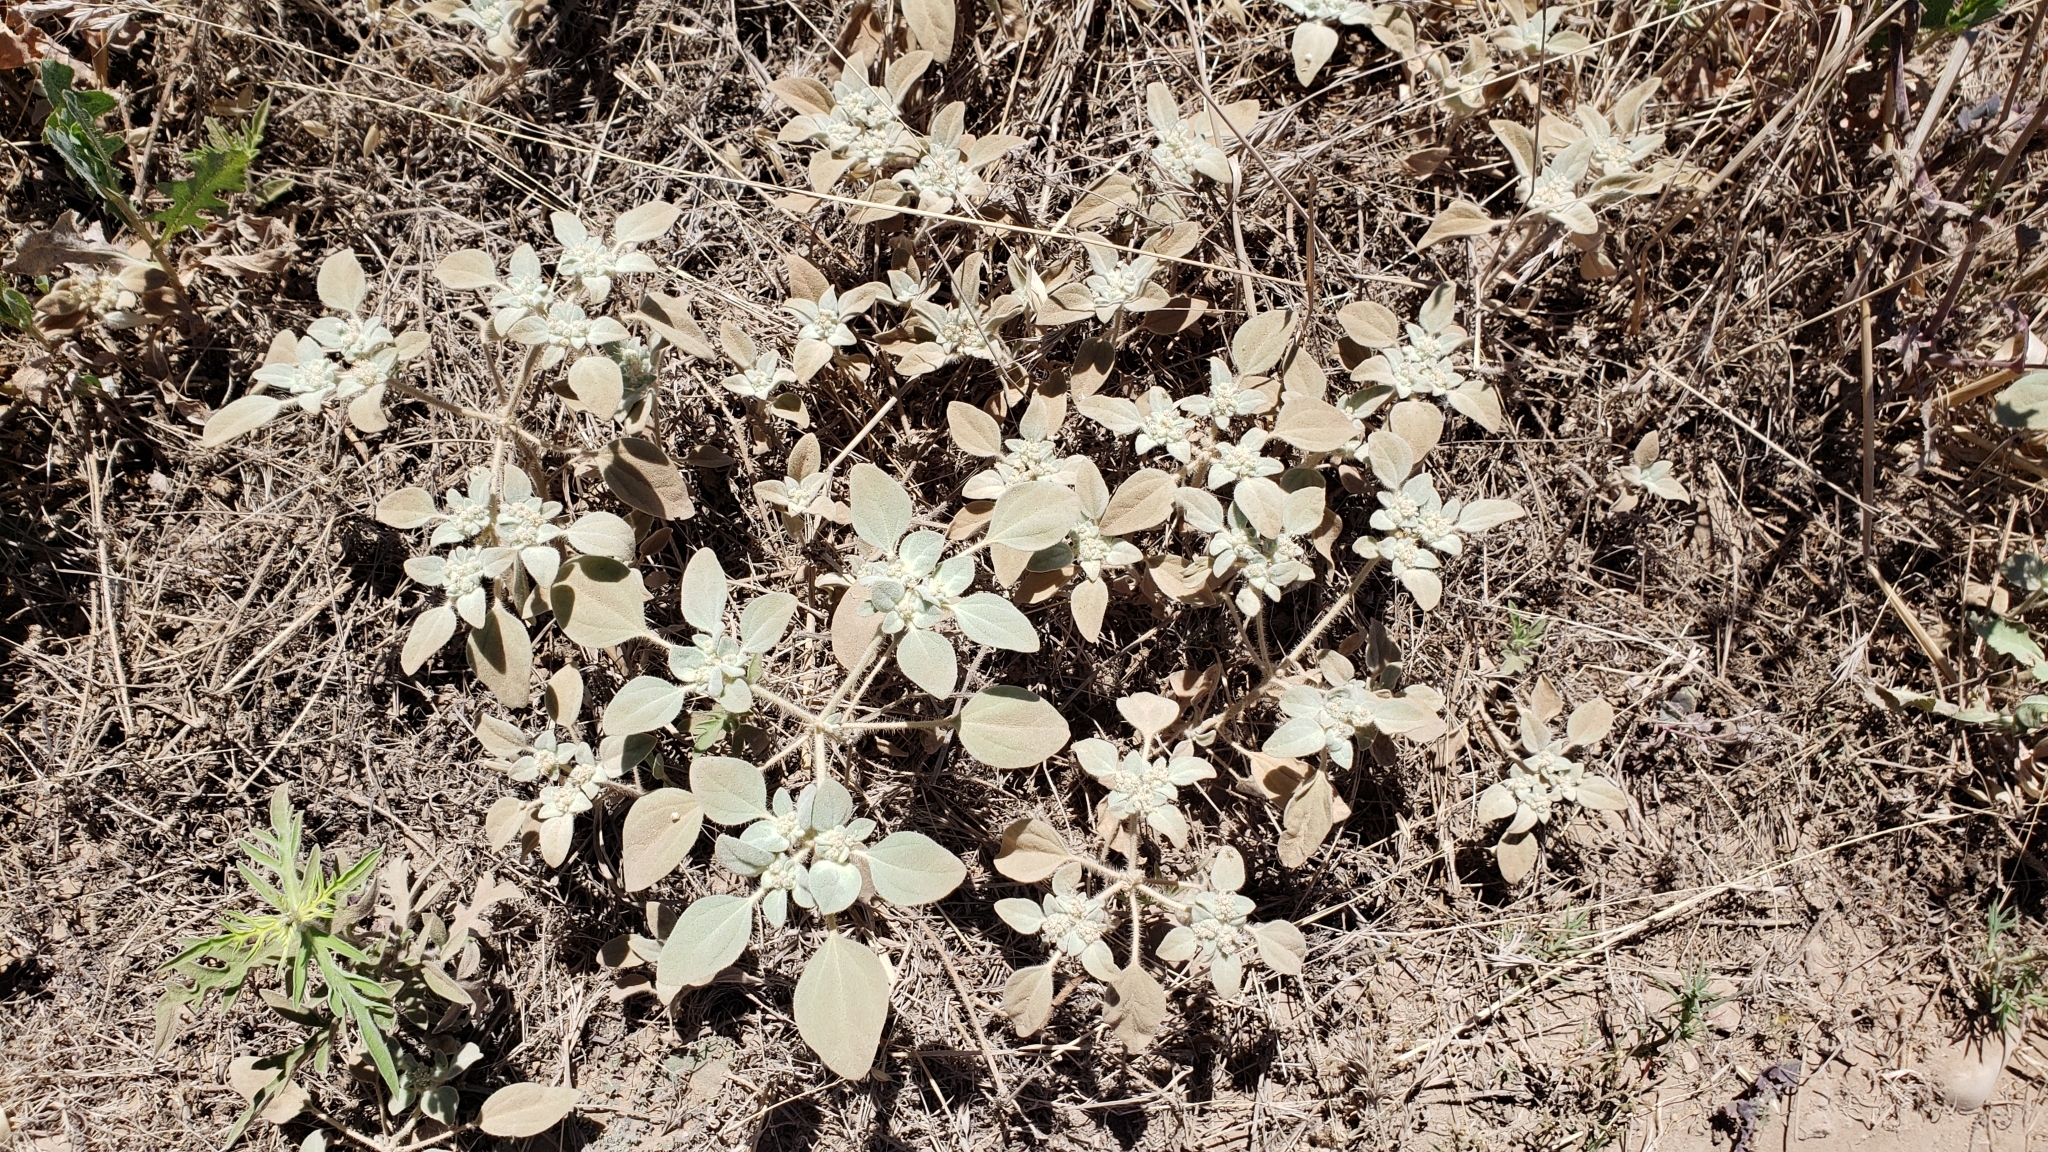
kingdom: Plantae
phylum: Tracheophyta
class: Magnoliopsida
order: Malpighiales
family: Euphorbiaceae
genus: Croton
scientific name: Croton setiger
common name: Dove weed
